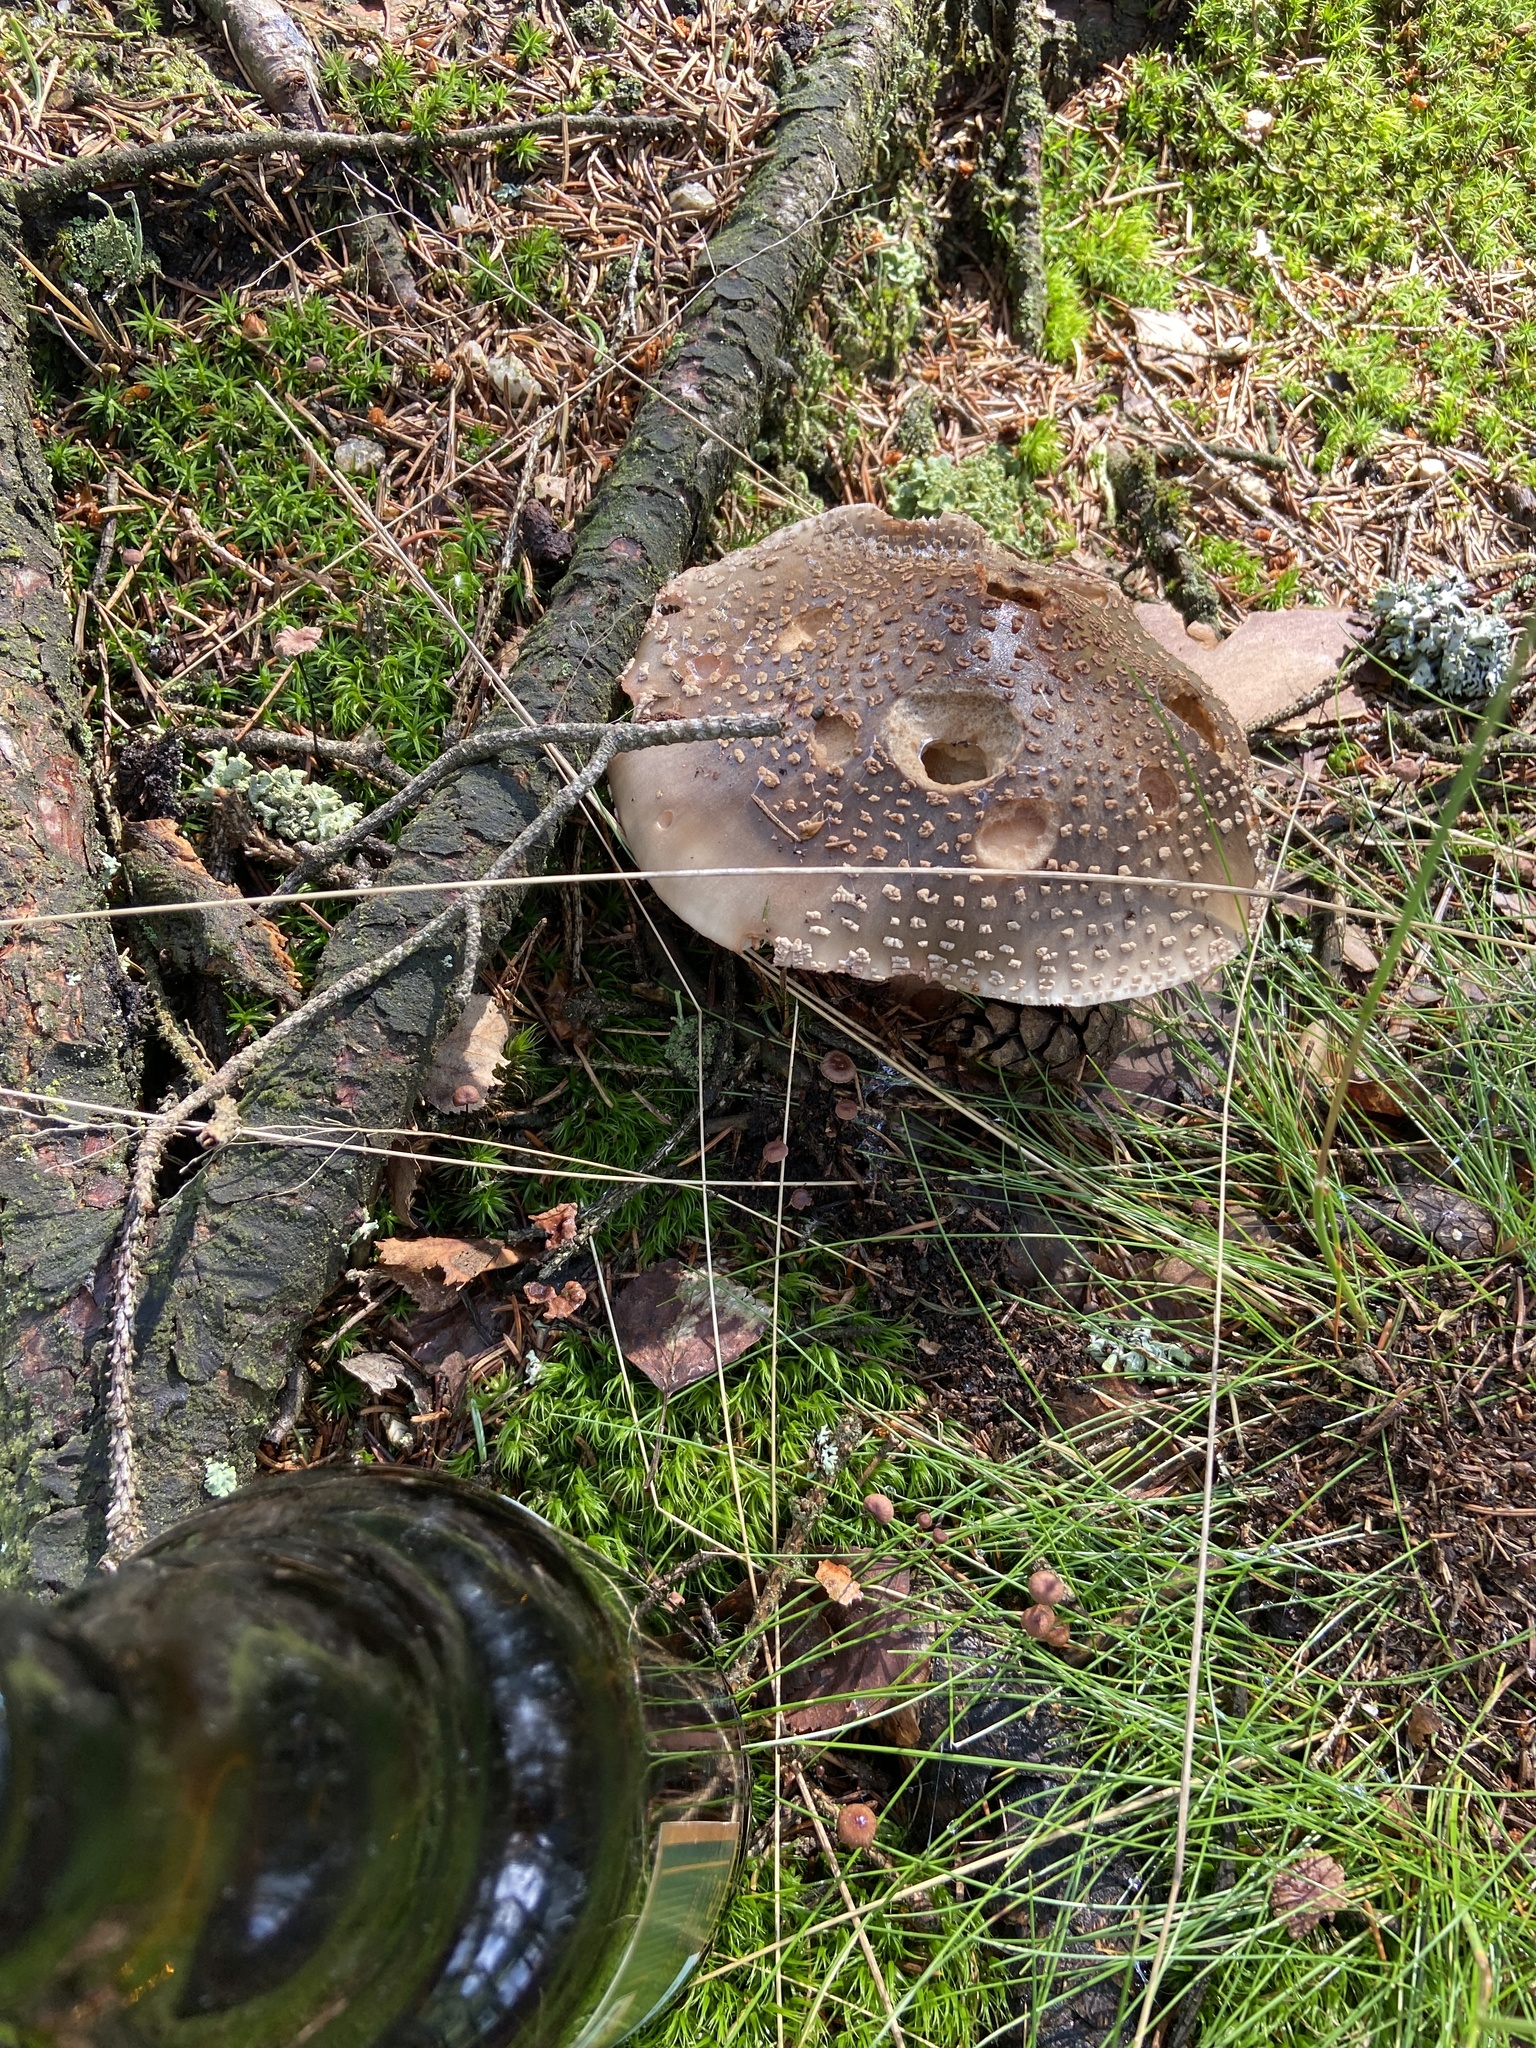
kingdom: Fungi
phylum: Basidiomycota
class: Agaricomycetes
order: Agaricales
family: Amanitaceae
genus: Amanita
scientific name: Amanita rubescens
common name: Blusher
